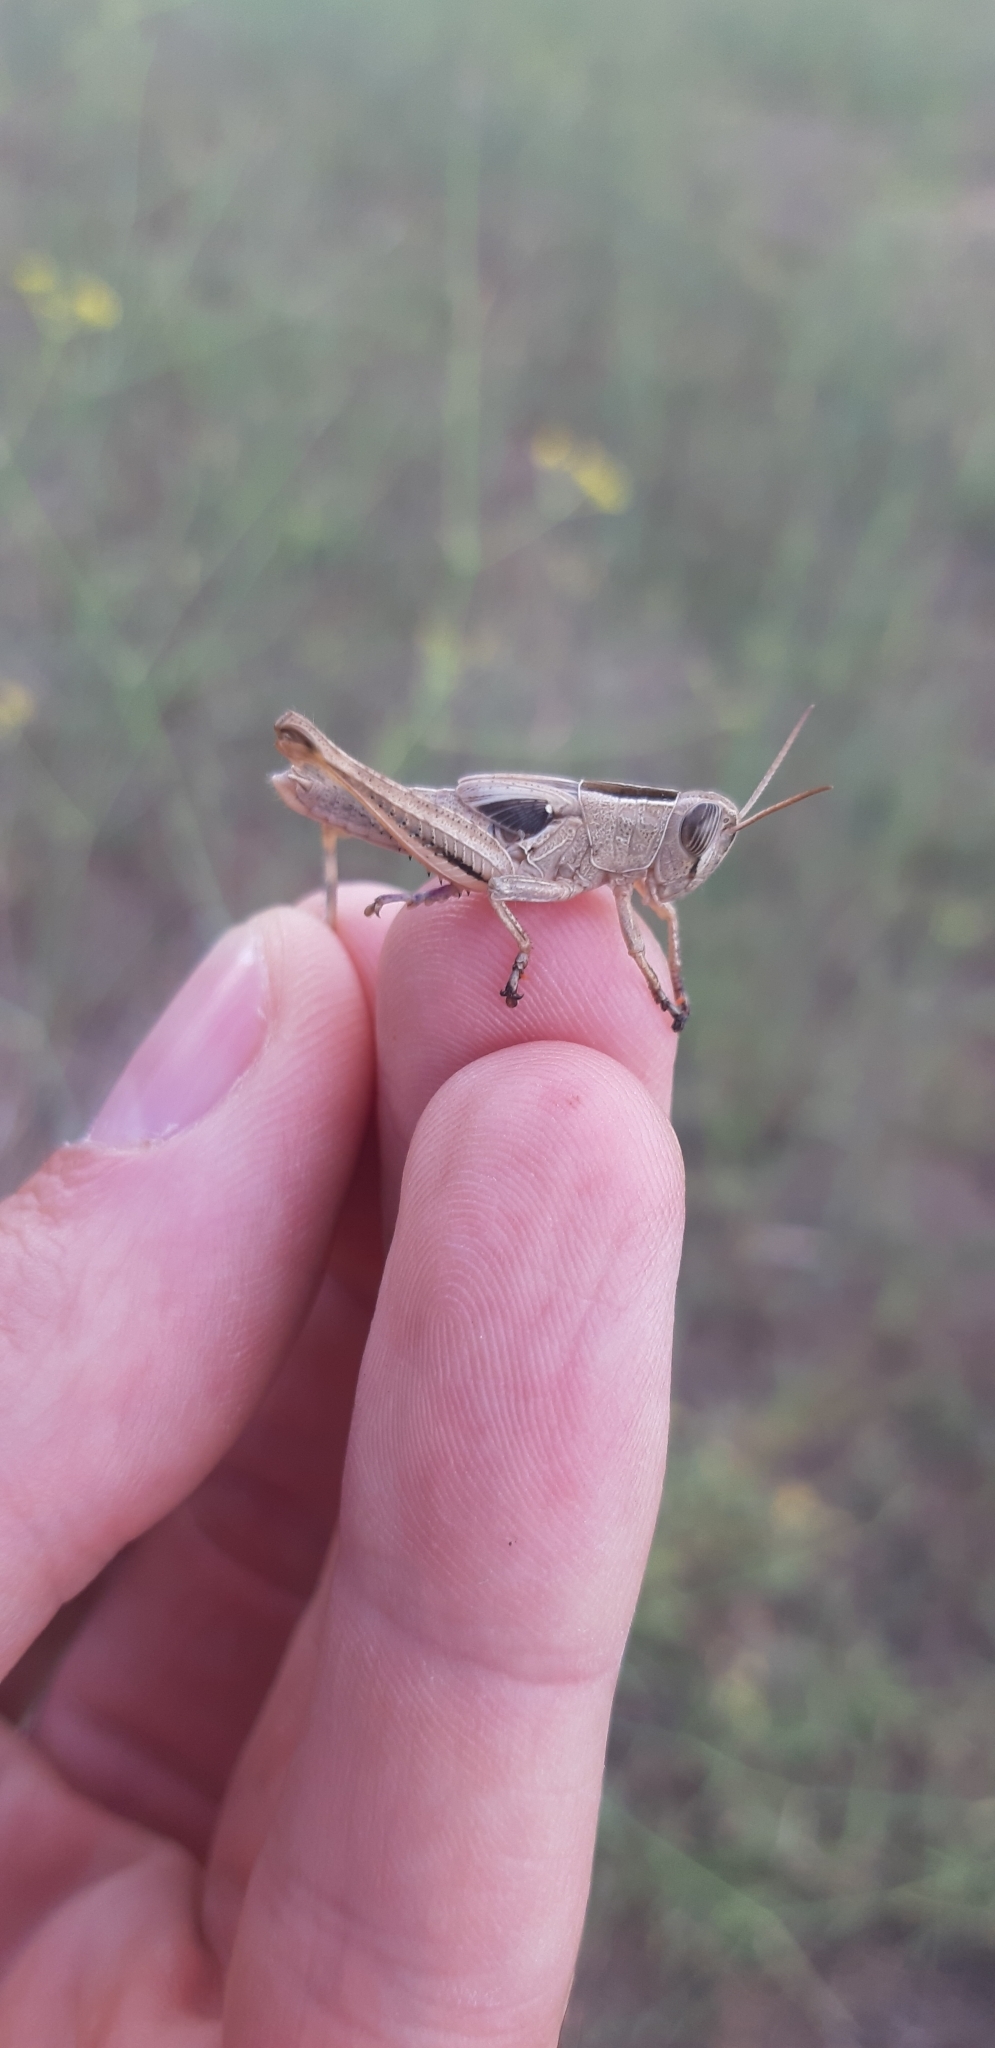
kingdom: Animalia
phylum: Arthropoda
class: Insecta
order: Orthoptera
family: Acrididae
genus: Eyprepocnemis
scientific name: Eyprepocnemis plorans
